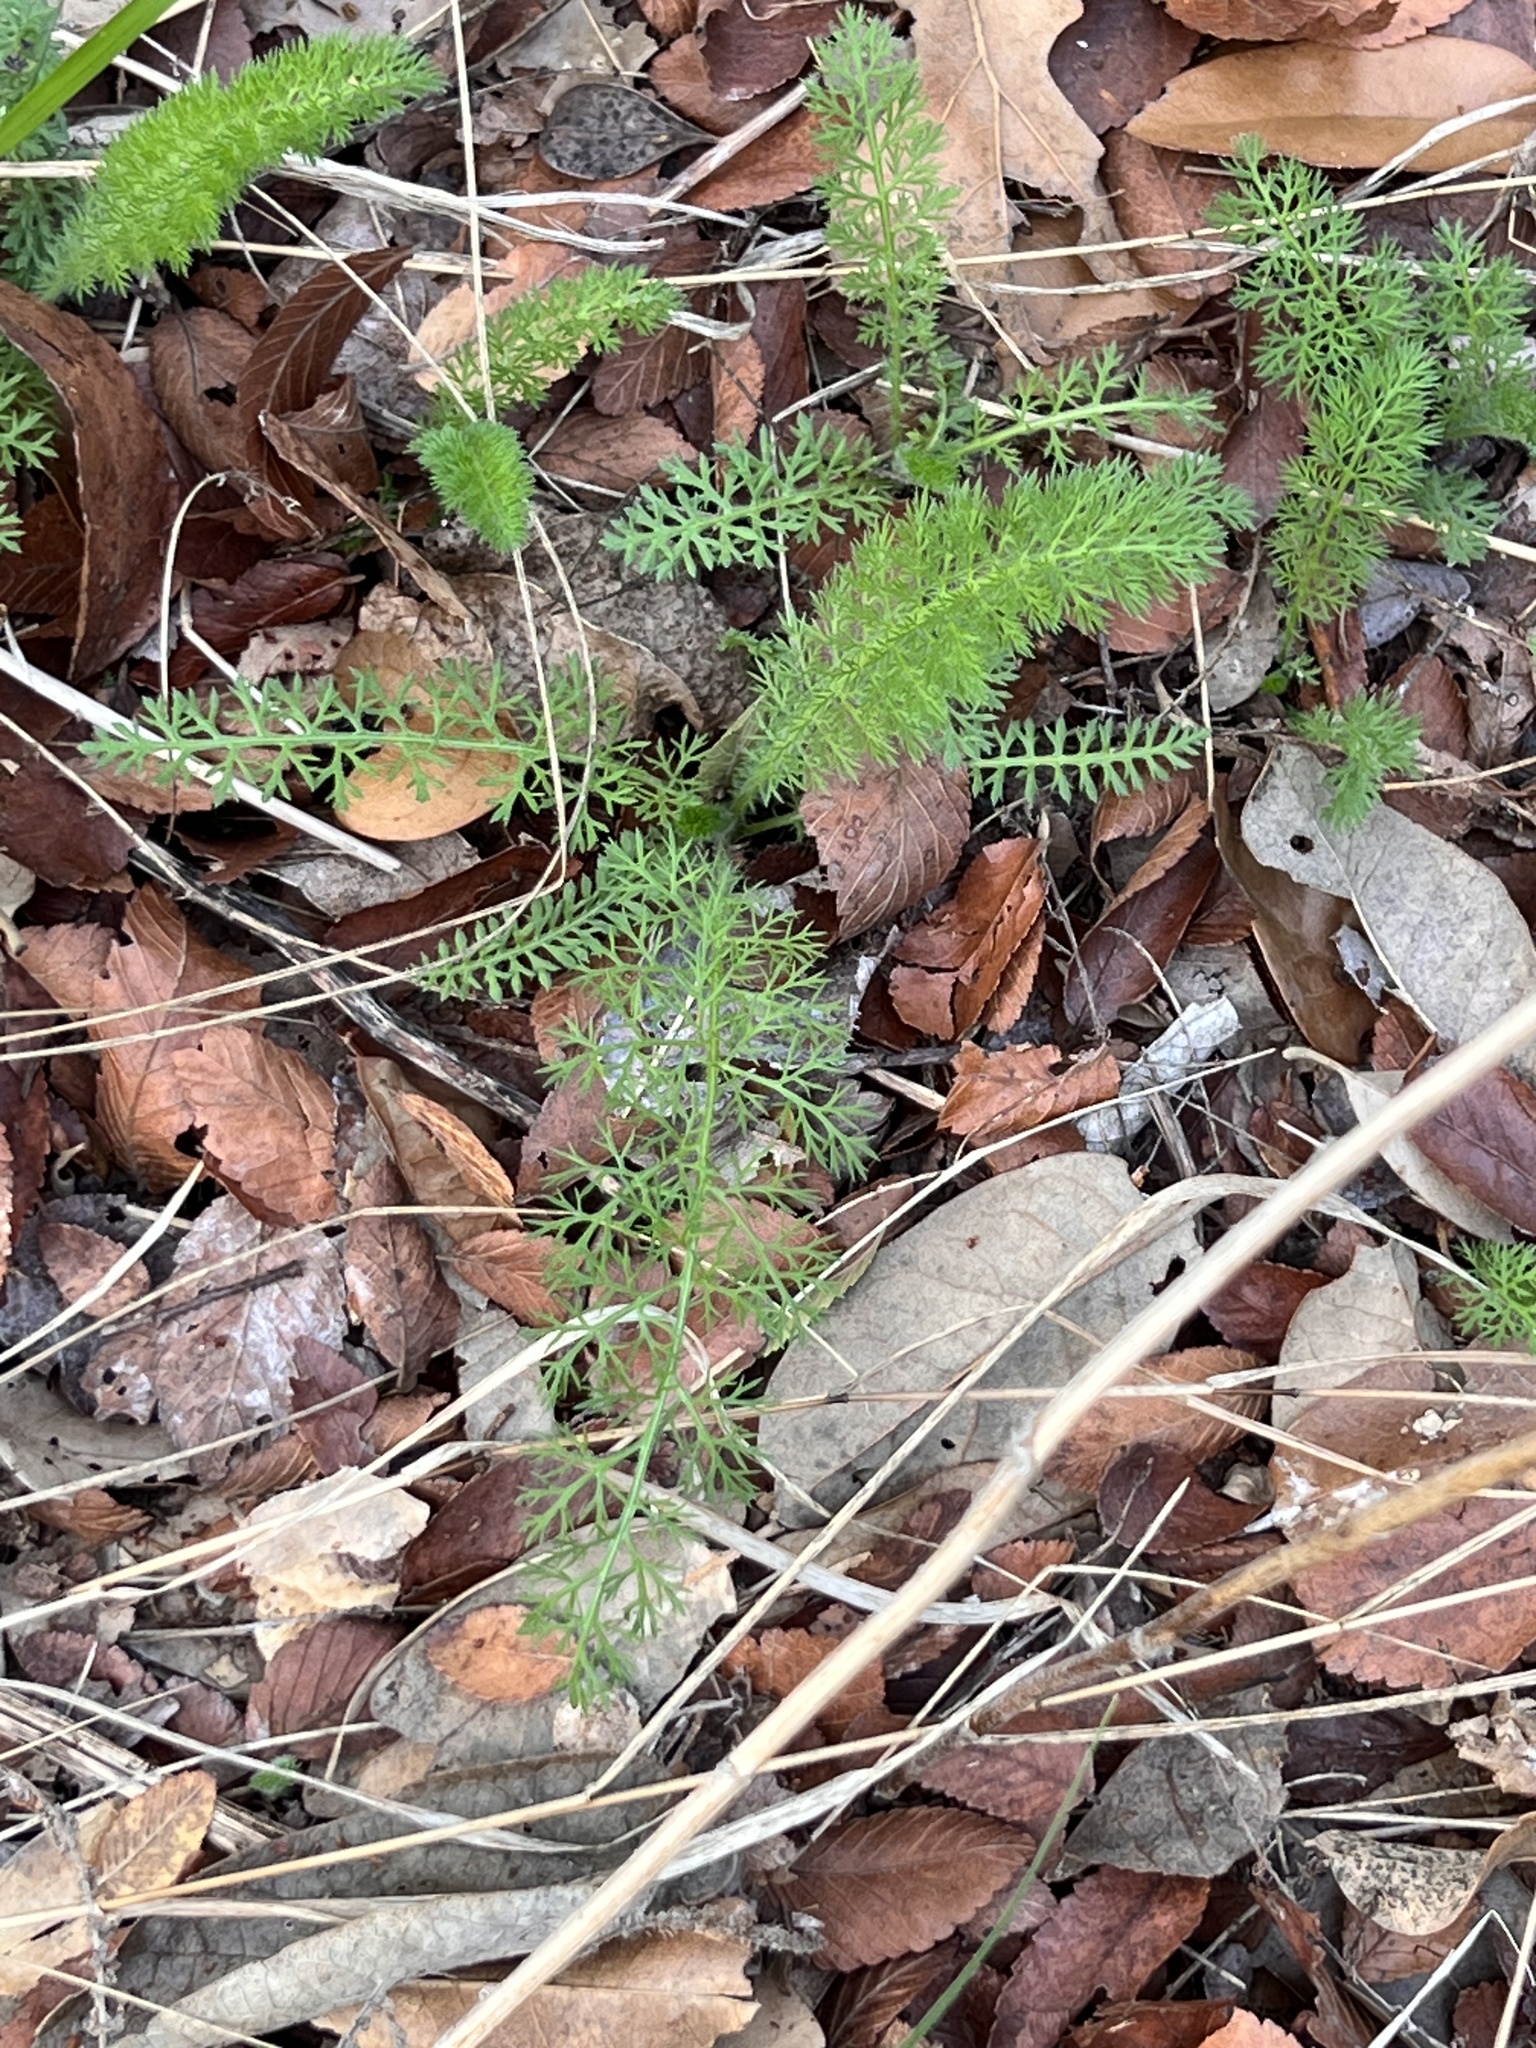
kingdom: Plantae
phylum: Tracheophyta
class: Magnoliopsida
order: Asterales
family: Asteraceae
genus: Achillea
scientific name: Achillea millefolium
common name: Yarrow
